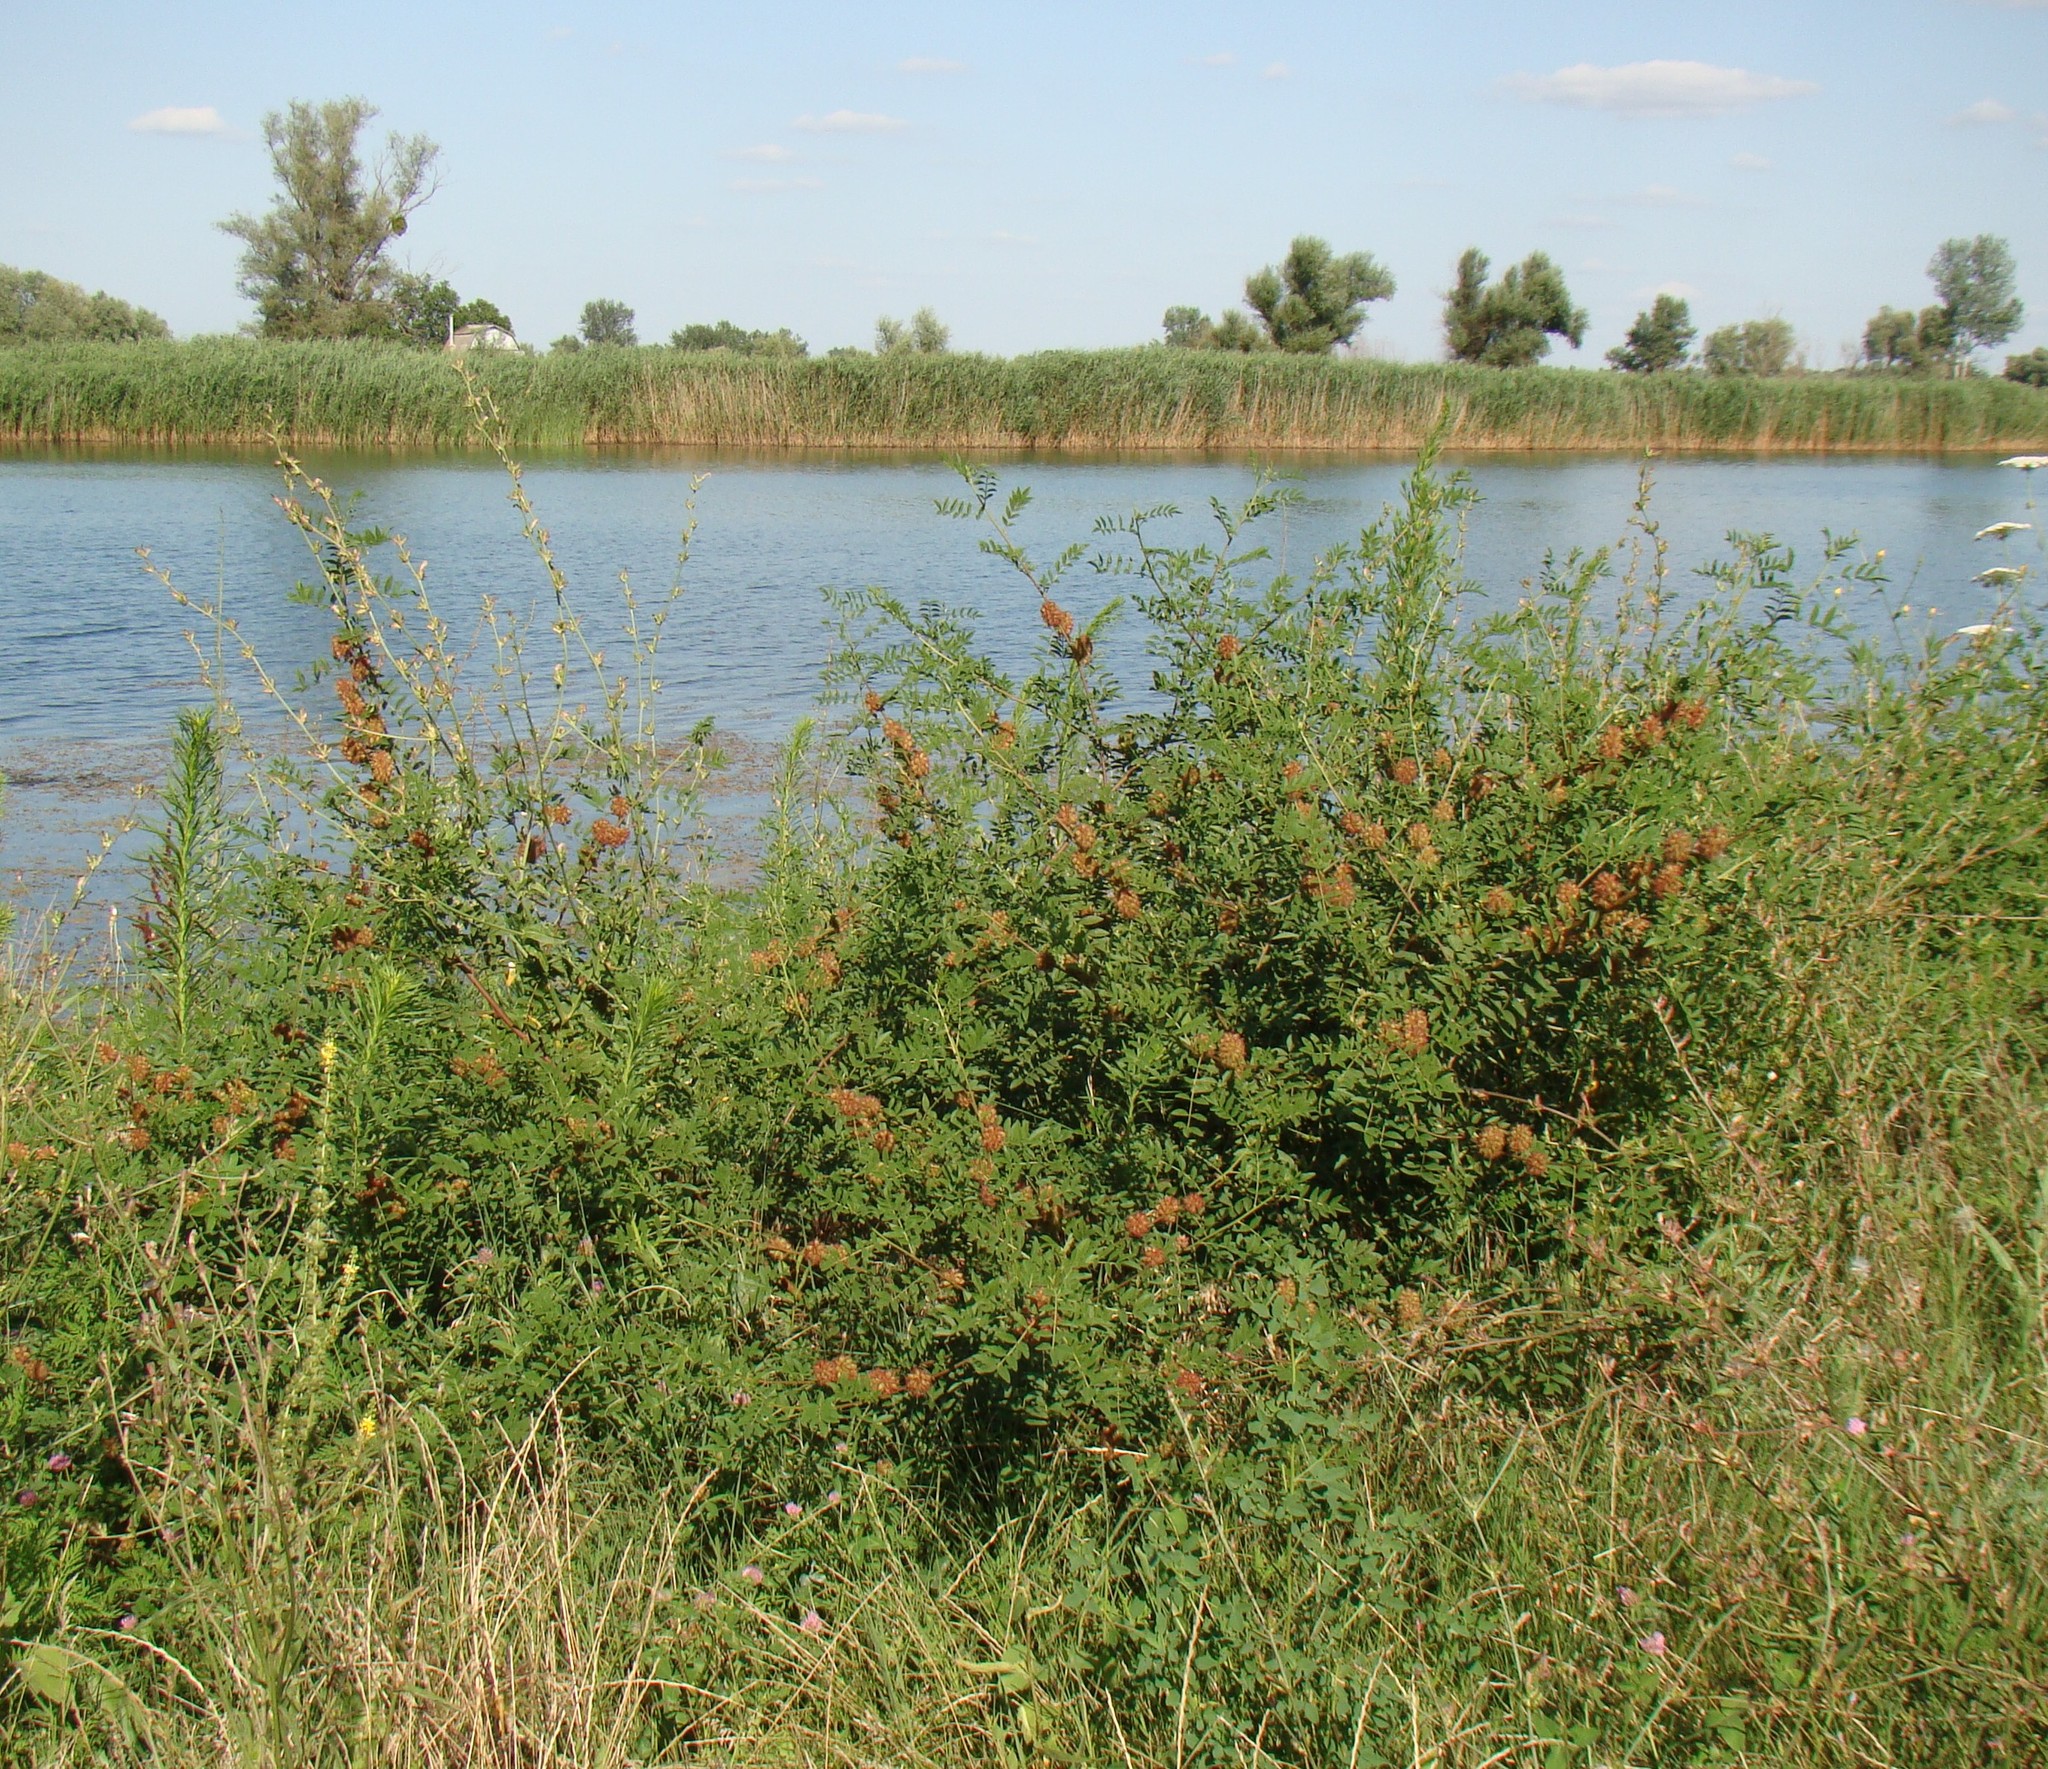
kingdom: Plantae
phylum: Tracheophyta
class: Magnoliopsida
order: Fabales
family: Fabaceae
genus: Glycyrrhiza
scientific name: Glycyrrhiza echinata
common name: German liquorice
